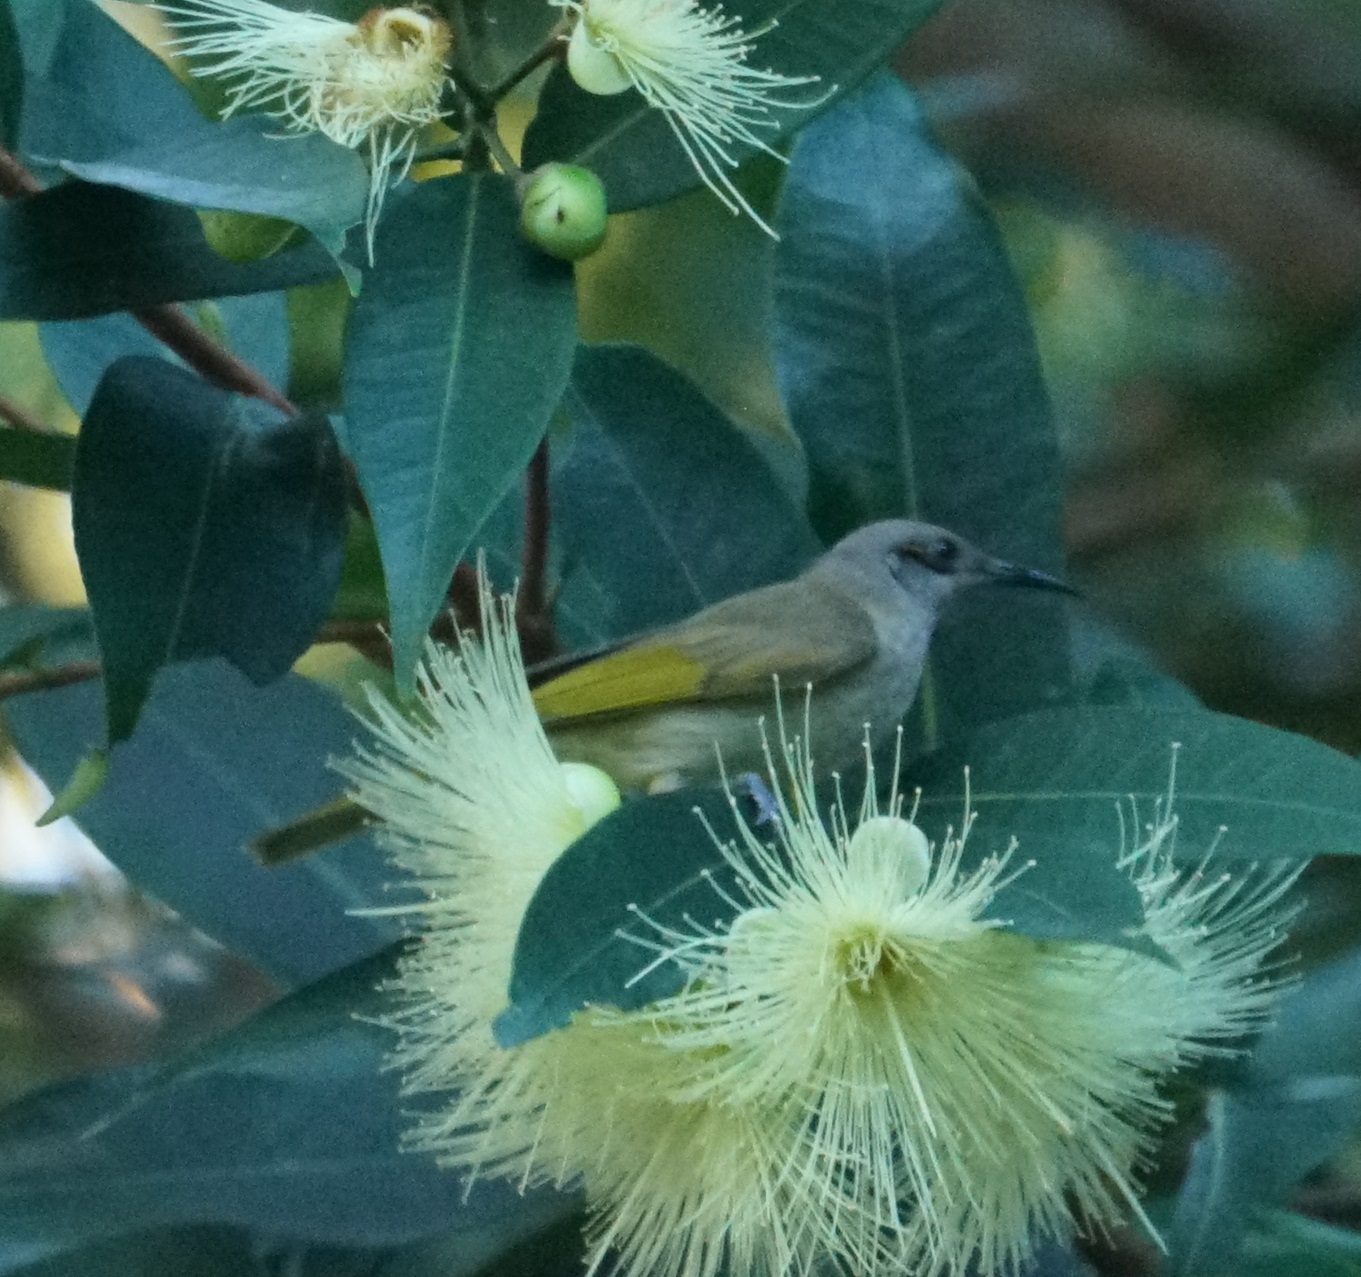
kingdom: Animalia
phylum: Chordata
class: Aves
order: Passeriformes
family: Meliphagidae
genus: Lichmera
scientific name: Lichmera indistincta
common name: Brown honeyeater
